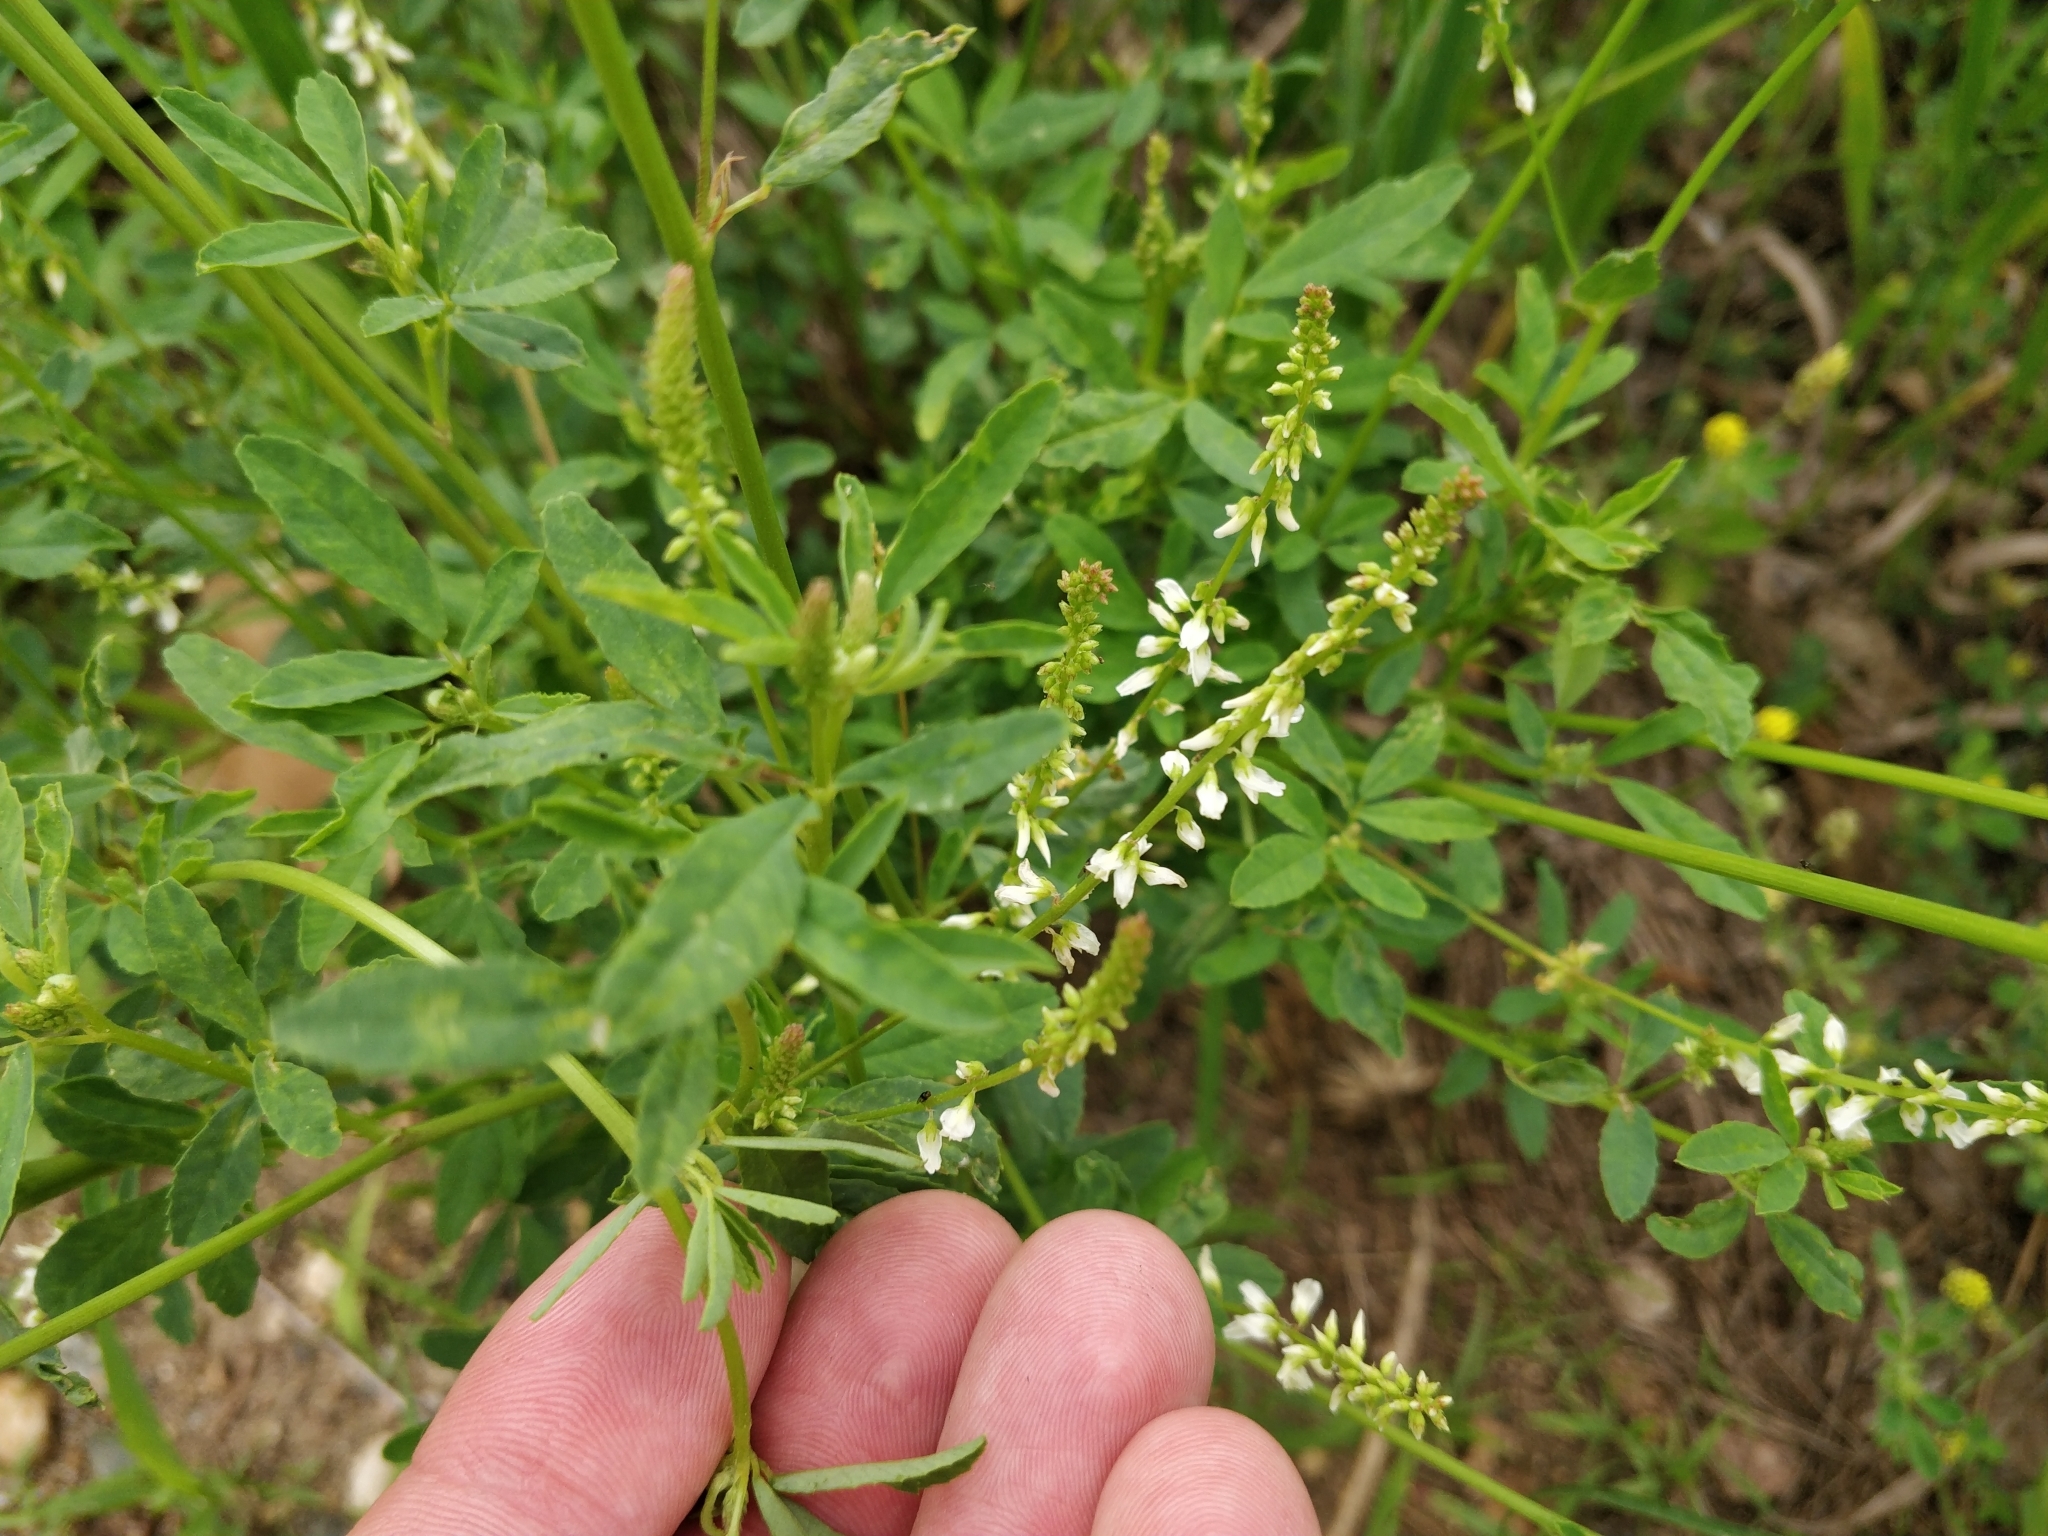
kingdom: Plantae
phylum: Tracheophyta
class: Magnoliopsida
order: Fabales
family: Fabaceae
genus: Melilotus
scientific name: Melilotus albus
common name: White melilot
